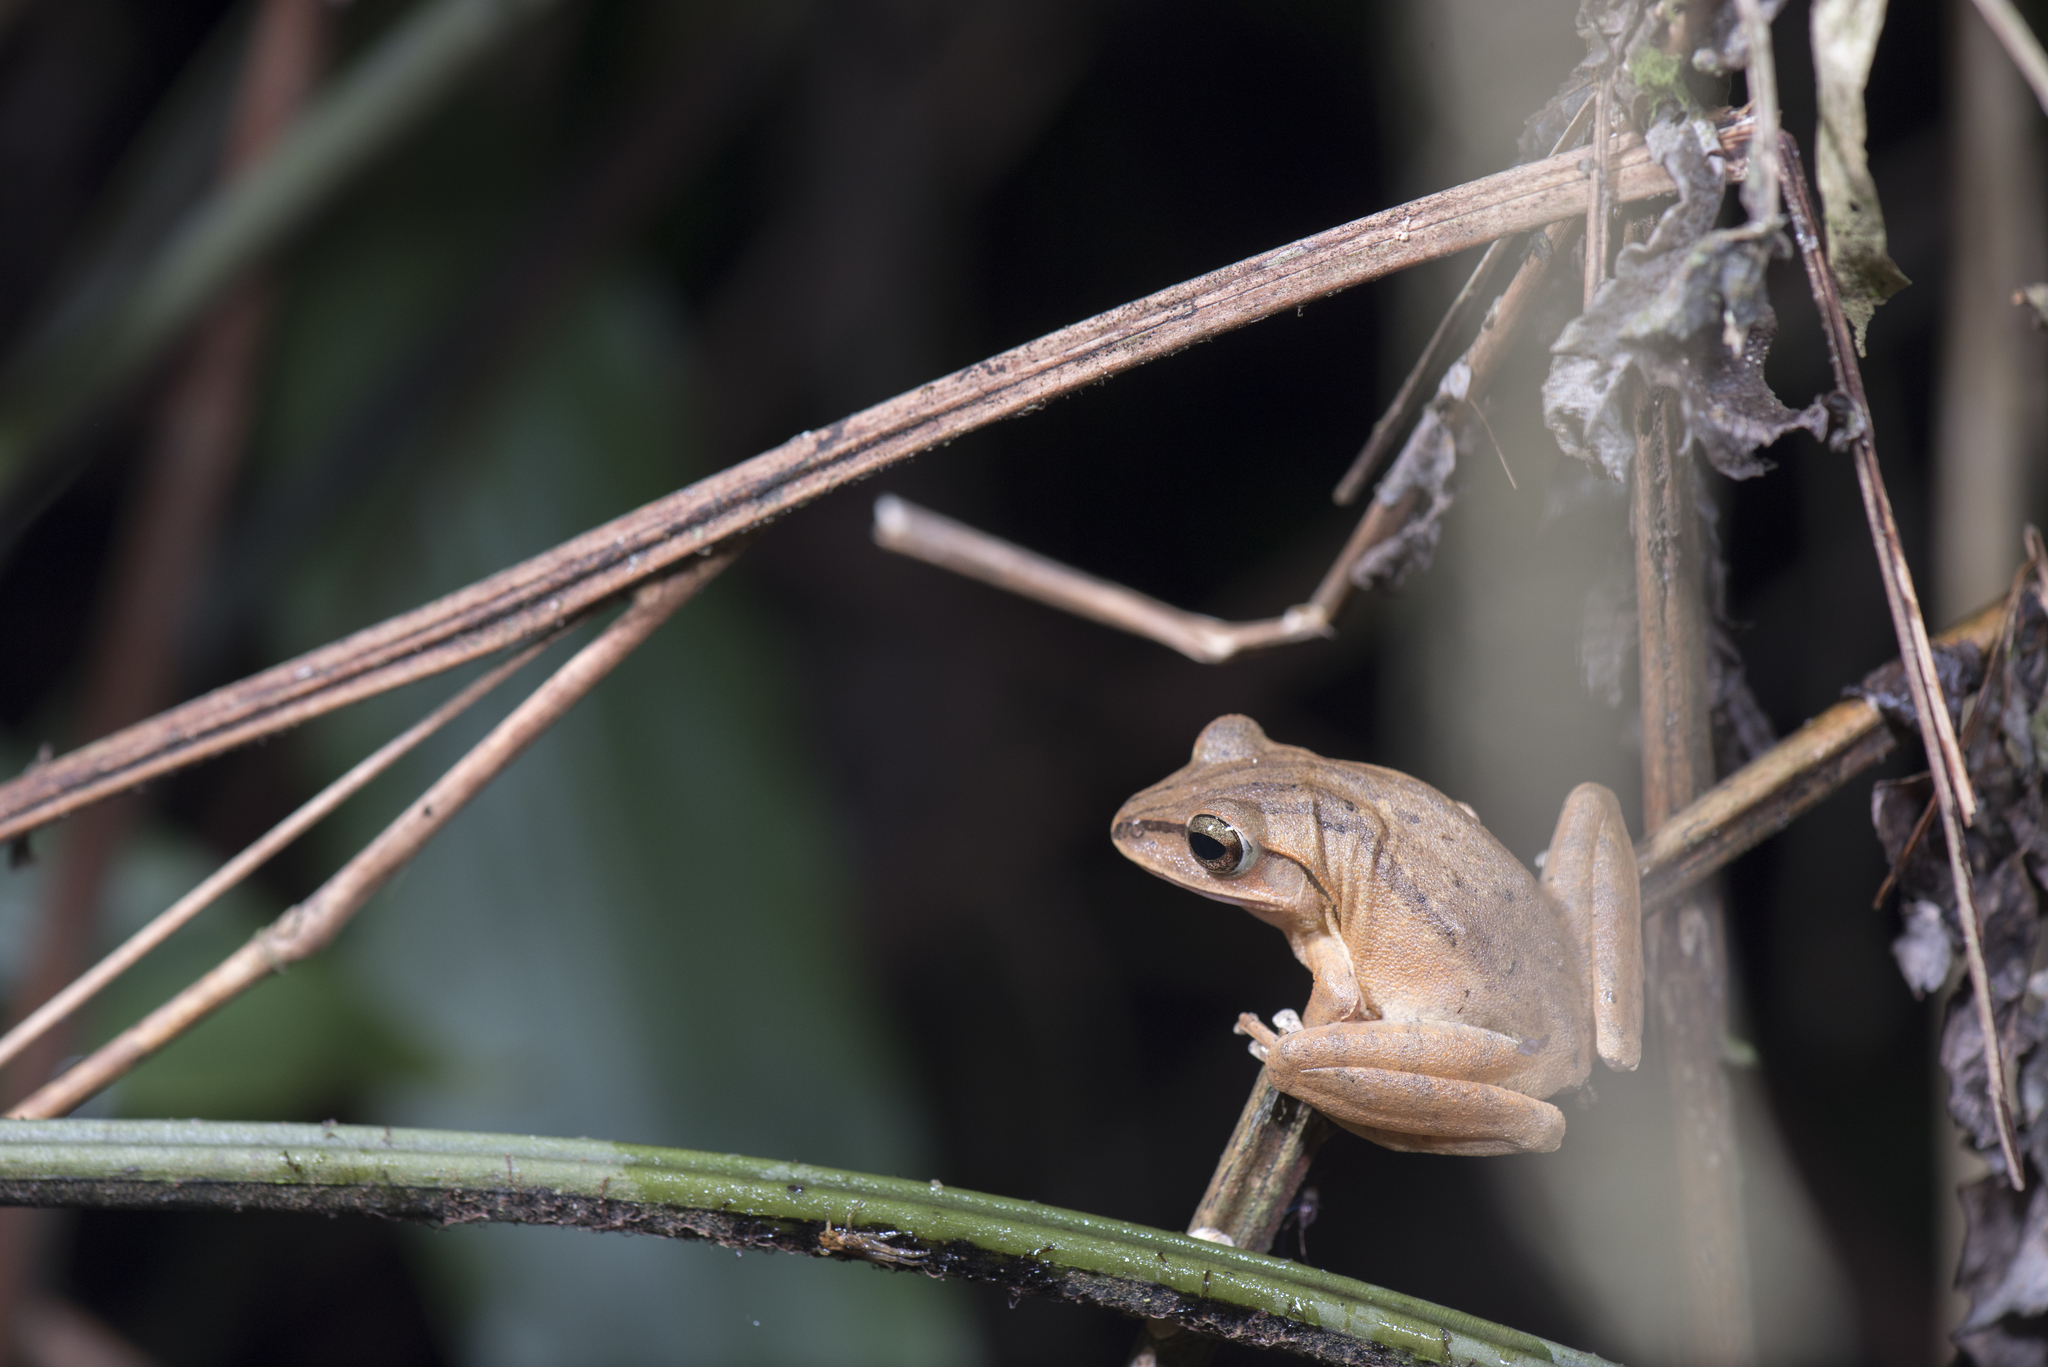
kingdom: Animalia
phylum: Chordata
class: Amphibia
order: Anura
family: Rhacophoridae
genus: Polypedates
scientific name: Polypedates braueri
